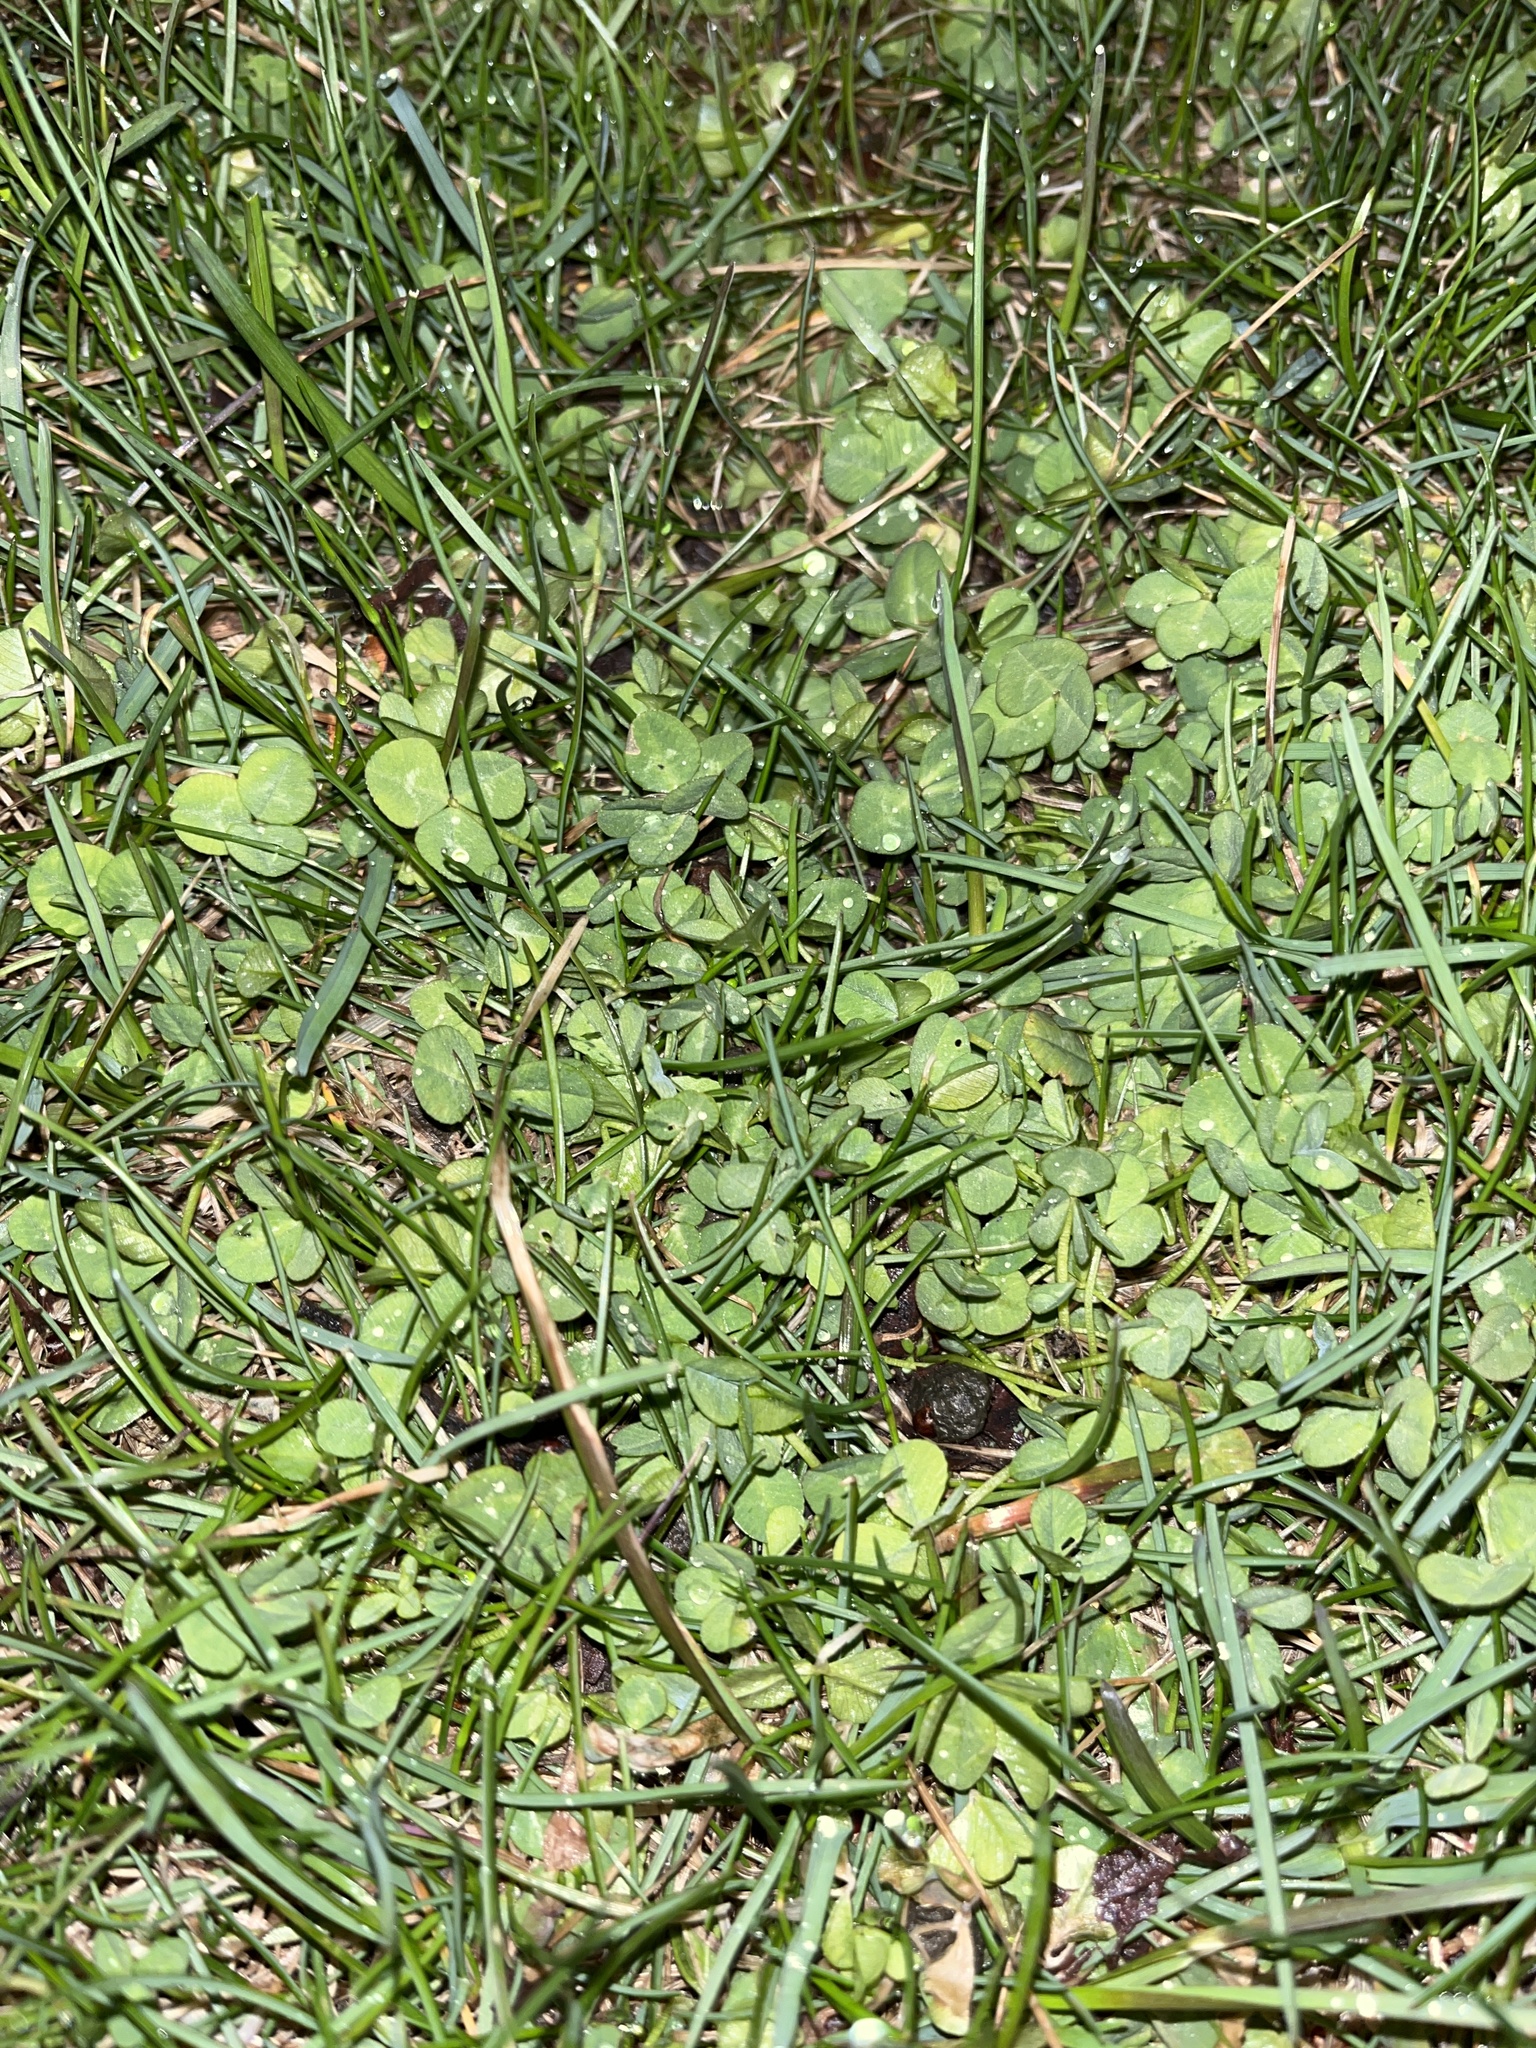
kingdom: Plantae
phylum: Tracheophyta
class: Magnoliopsida
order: Fabales
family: Fabaceae
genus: Trifolium
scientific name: Trifolium repens
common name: White clover
